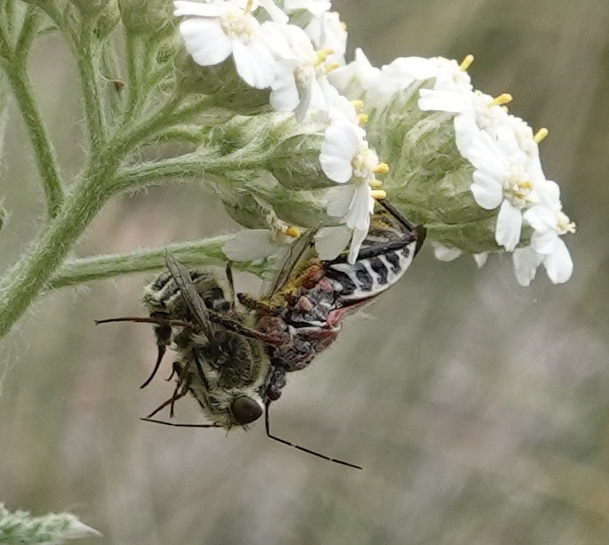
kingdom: Animalia
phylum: Arthropoda
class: Insecta
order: Hemiptera
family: Reduviidae
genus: Apiomerus
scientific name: Apiomerus spissipes
